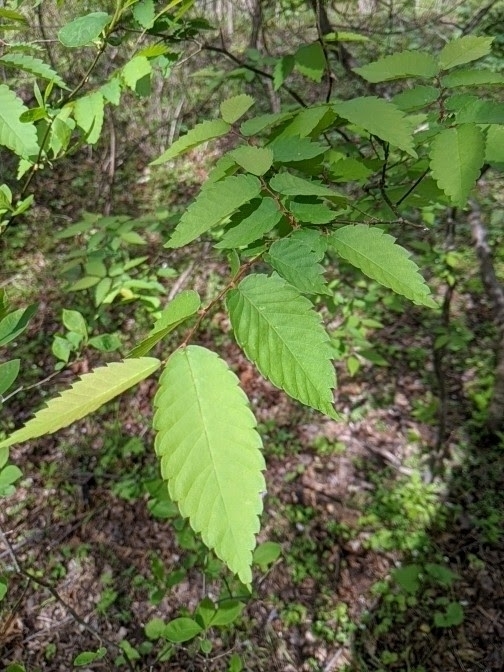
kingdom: Plantae
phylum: Tracheophyta
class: Magnoliopsida
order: Rosales
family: Ulmaceae
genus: Zelkova
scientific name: Zelkova serrata
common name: Japanese zelkova
